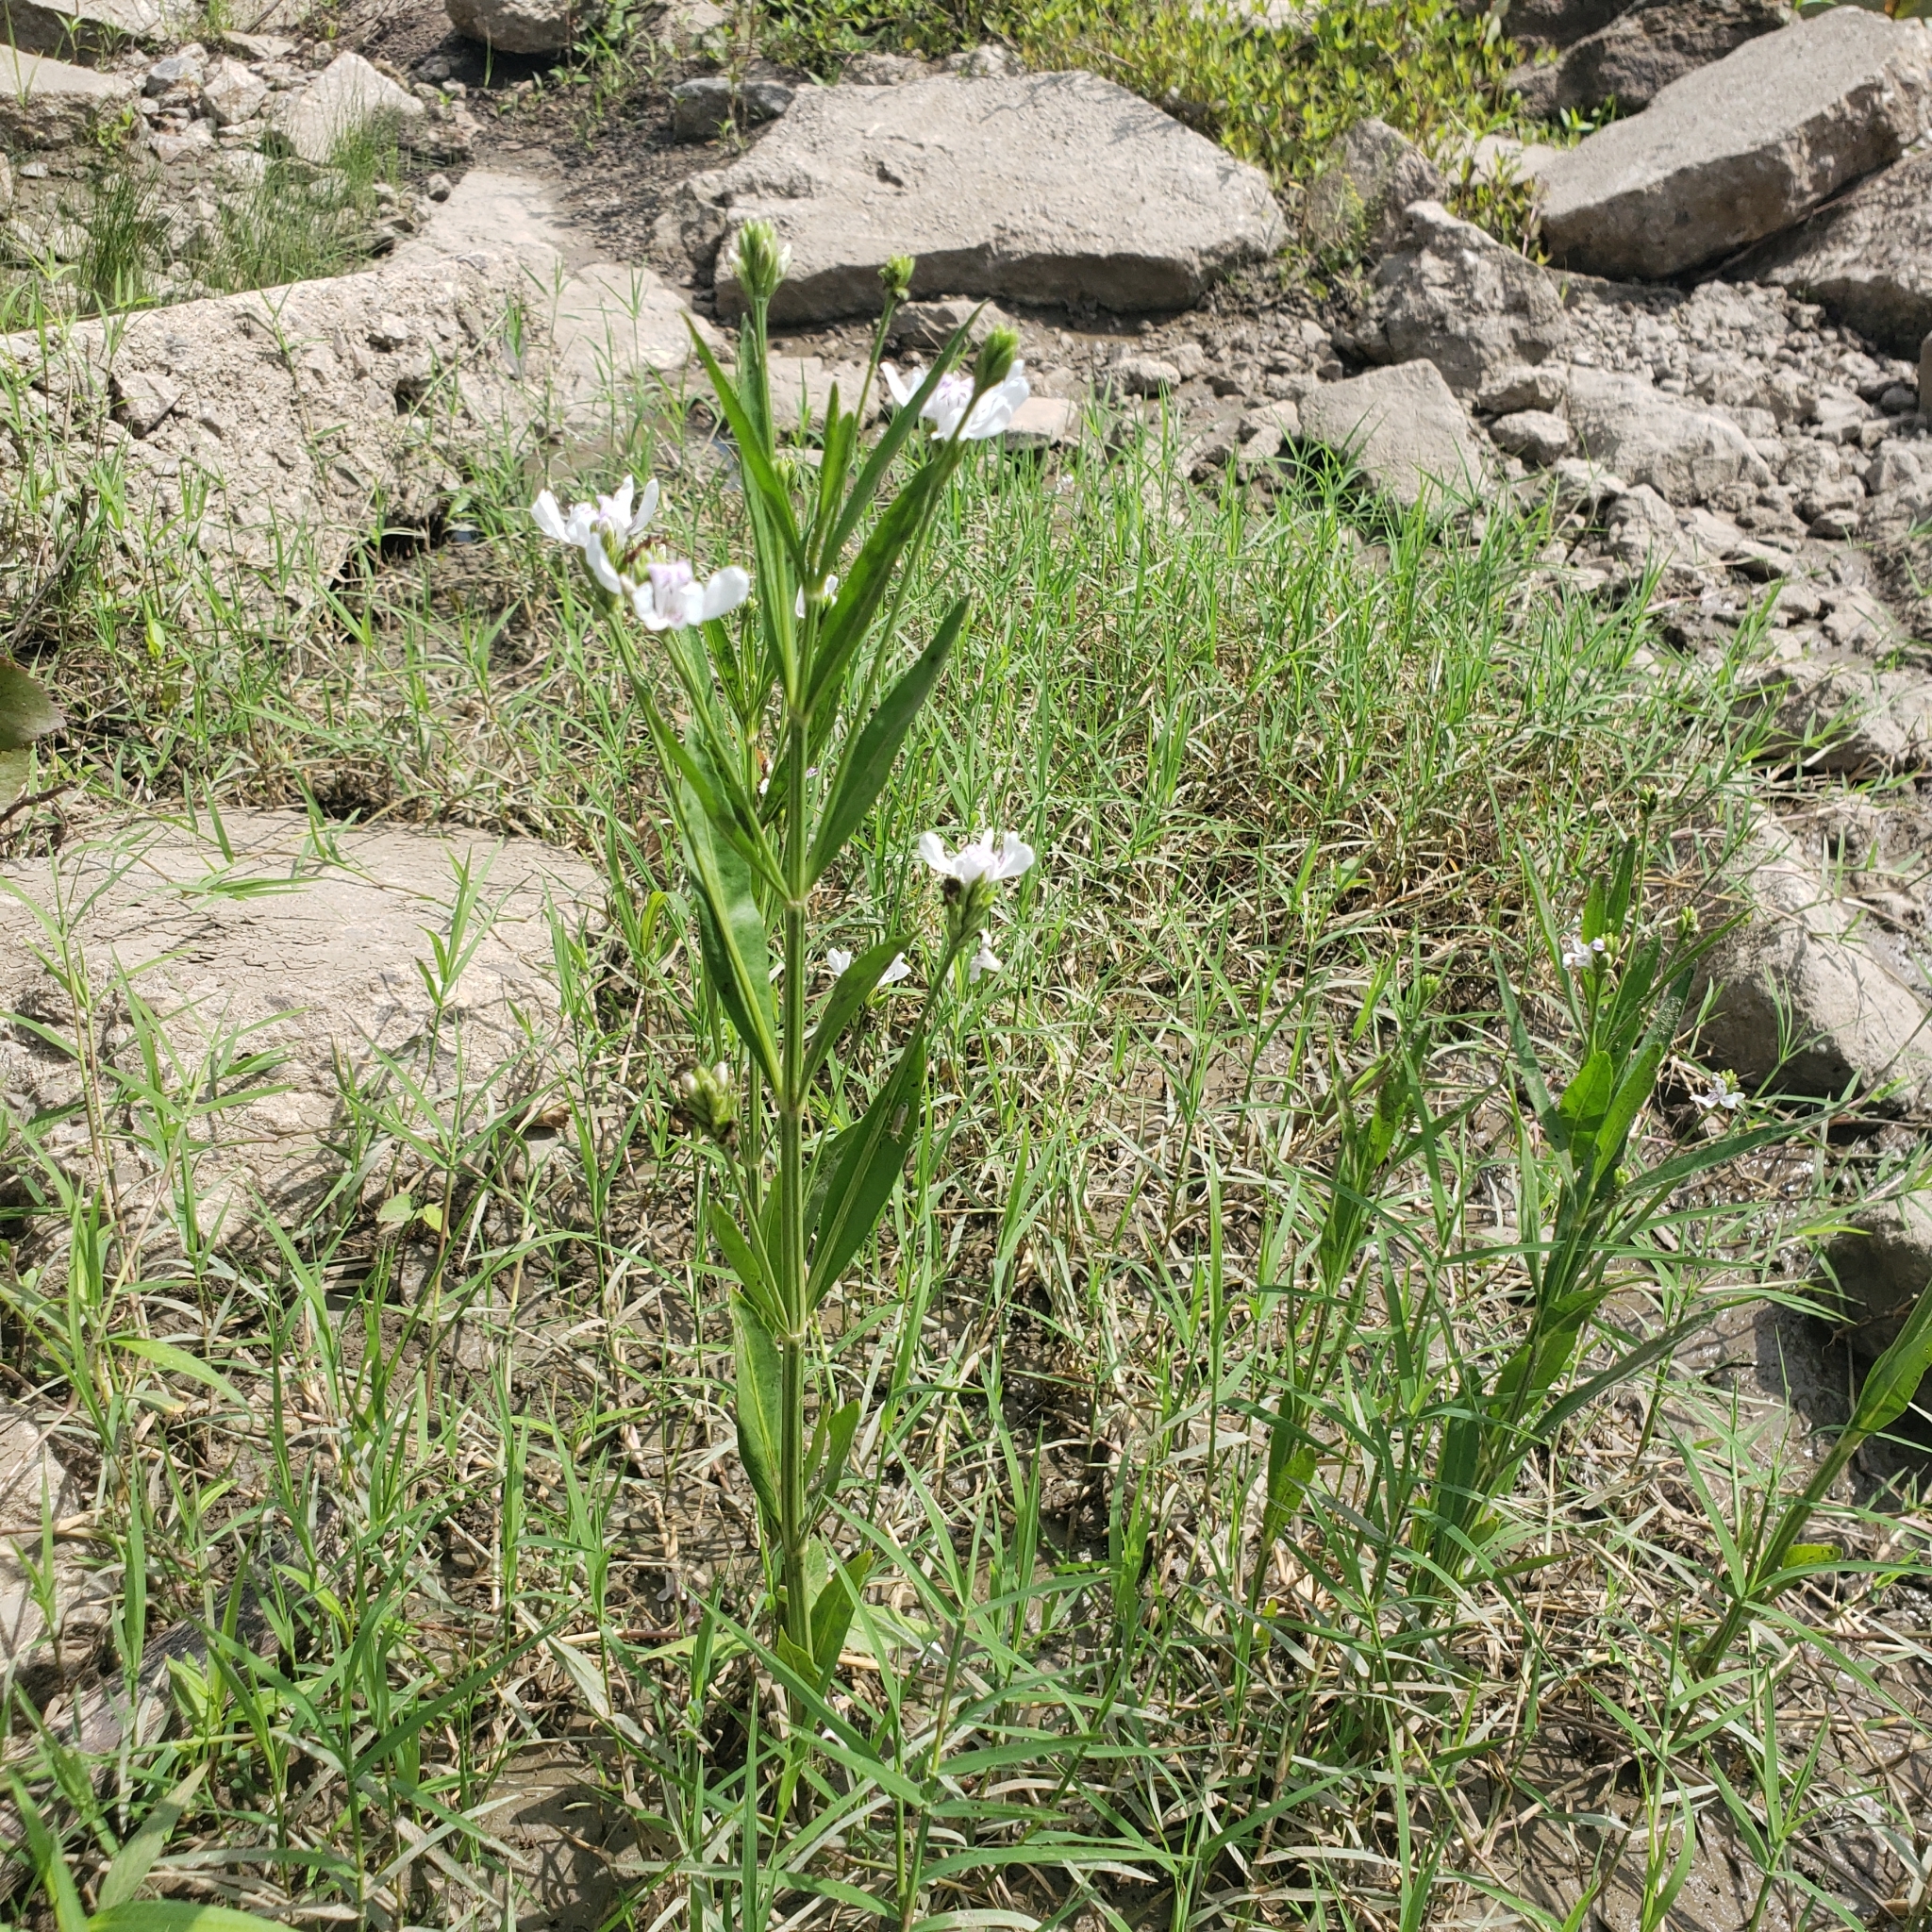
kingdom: Plantae
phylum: Tracheophyta
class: Magnoliopsida
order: Lamiales
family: Acanthaceae
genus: Dianthera
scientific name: Dianthera americana
